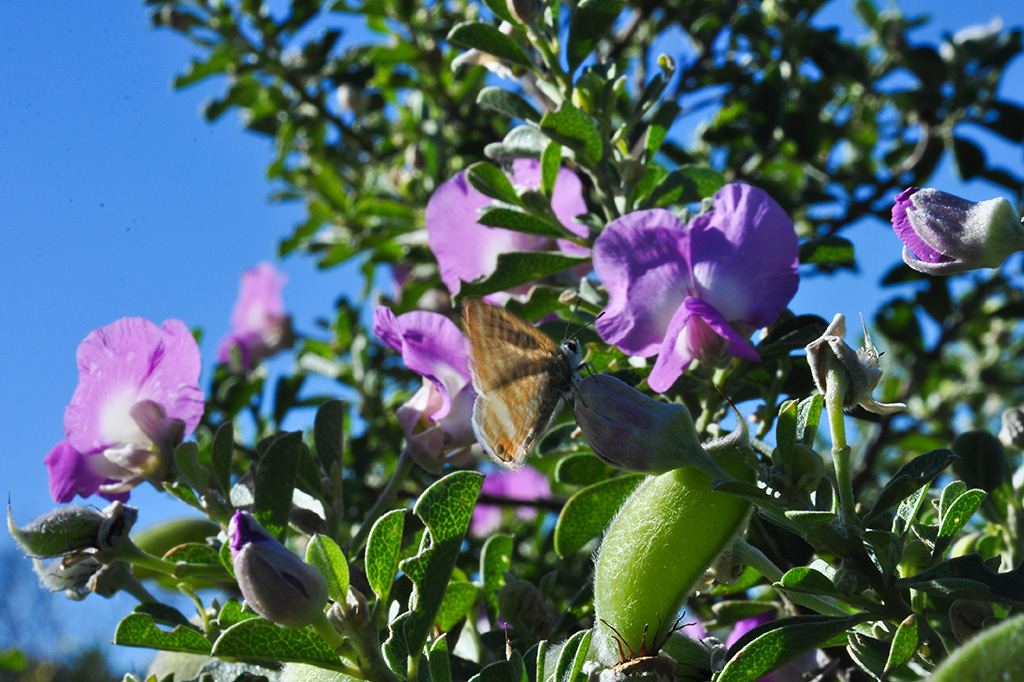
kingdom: Plantae
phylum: Tracheophyta
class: Magnoliopsida
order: Fabales
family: Fabaceae
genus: Podalyria
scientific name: Podalyria calyptrata
